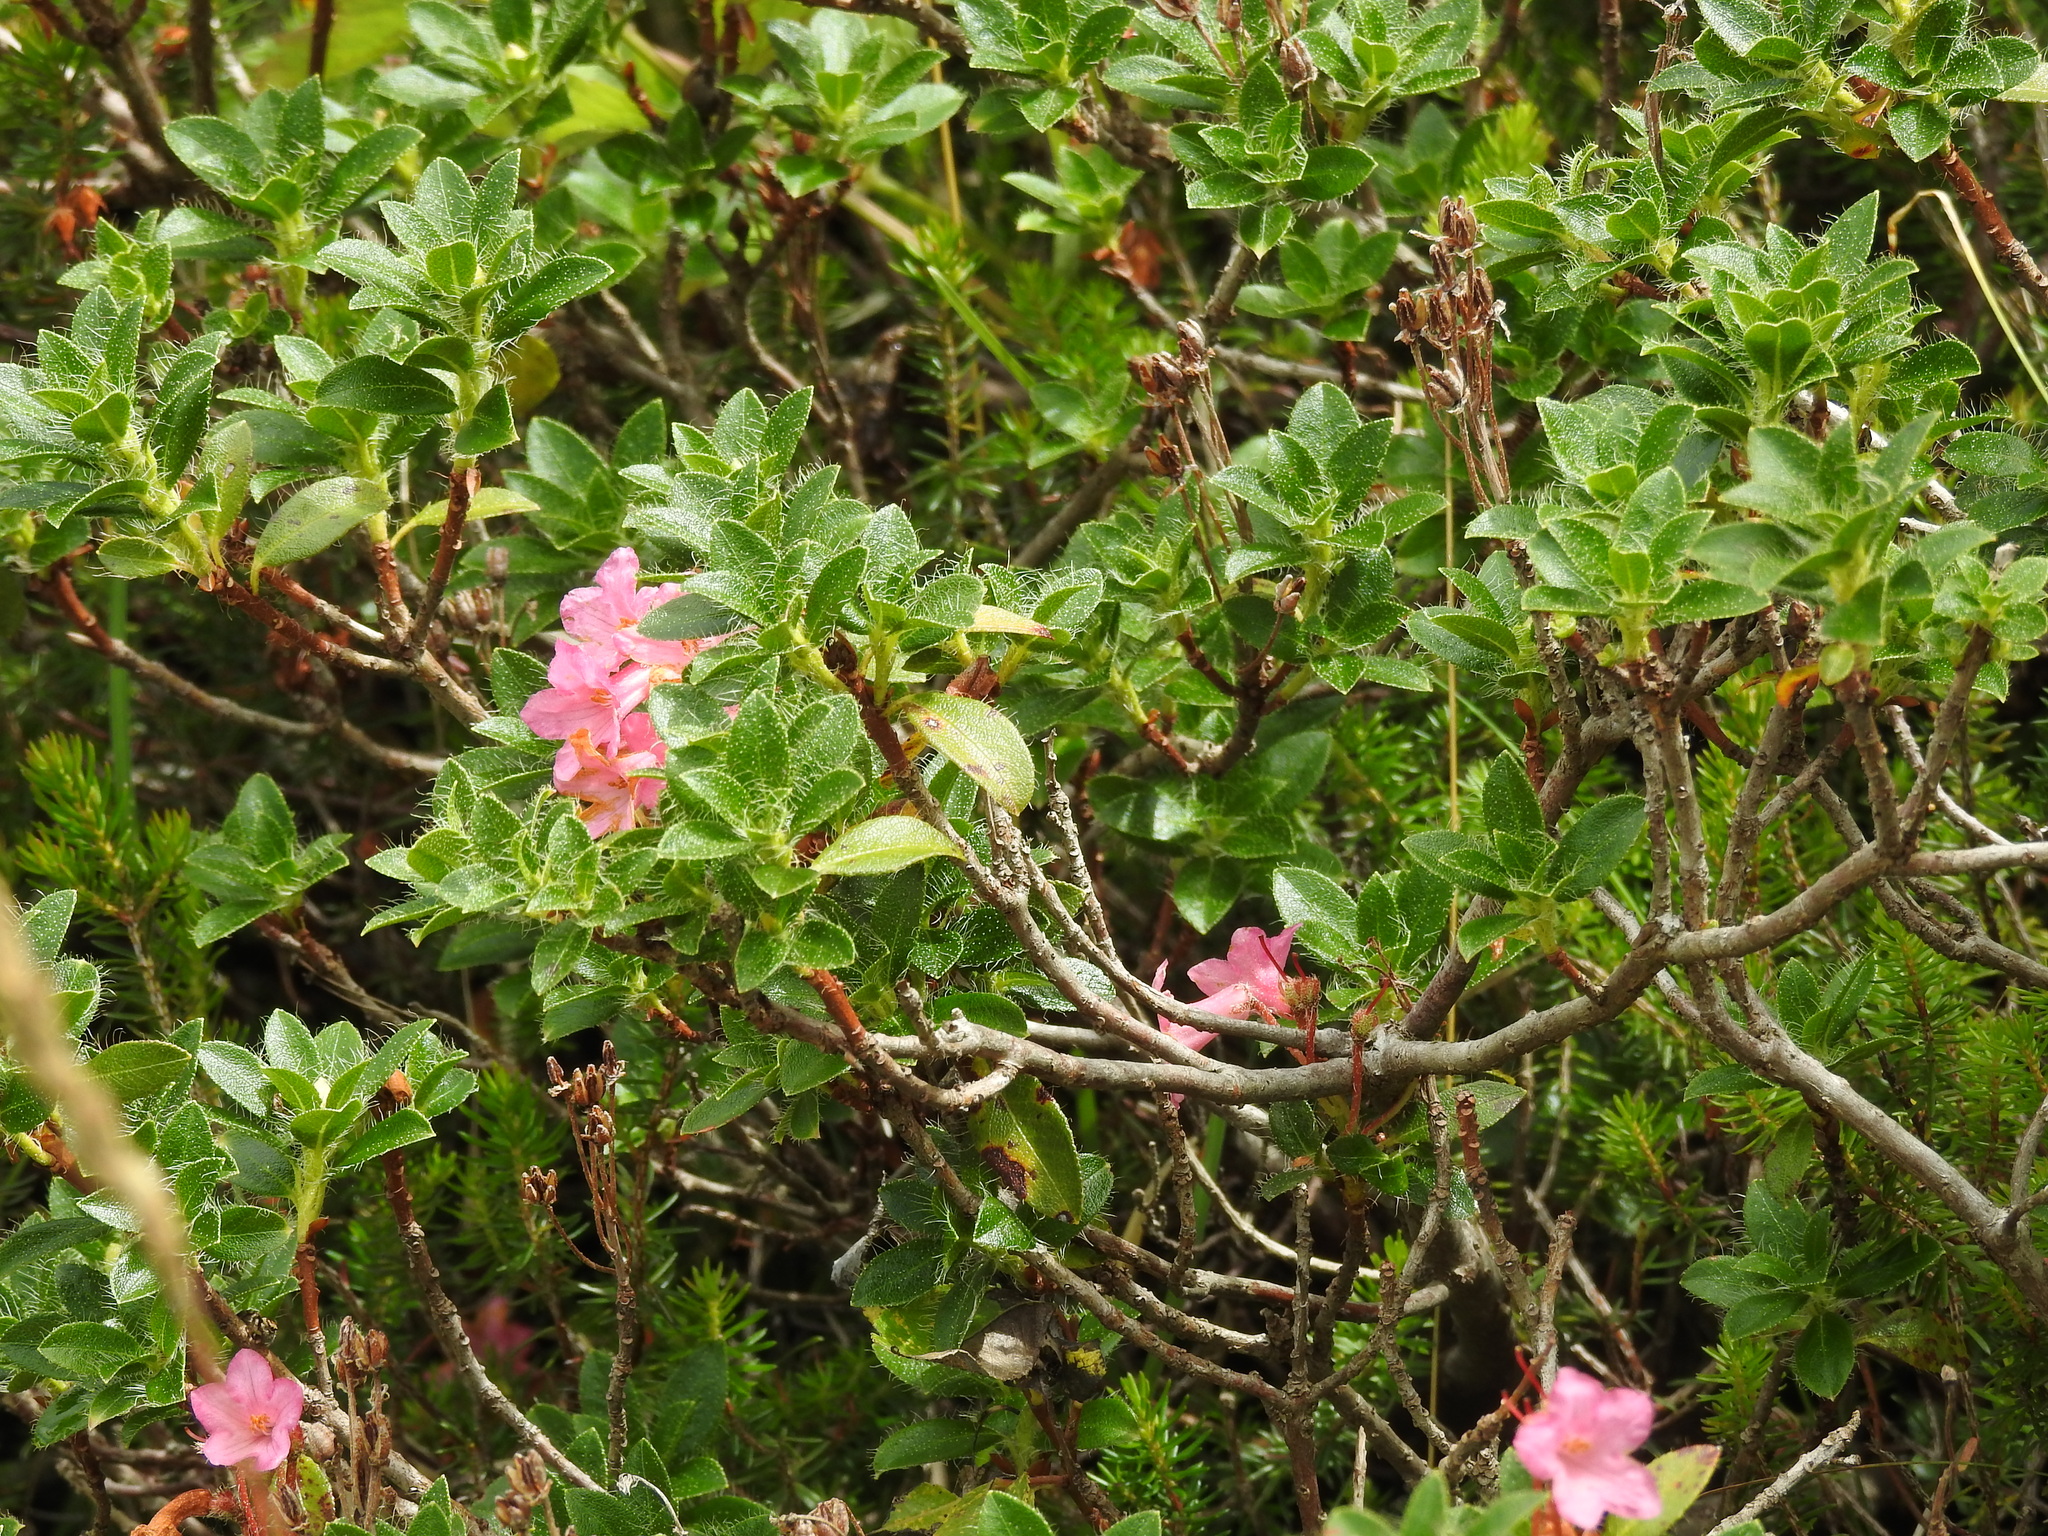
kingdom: Plantae
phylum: Tracheophyta
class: Magnoliopsida
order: Ericales
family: Ericaceae
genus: Rhododendron
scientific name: Rhododendron hirsutum
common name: Hairy alpenrose
